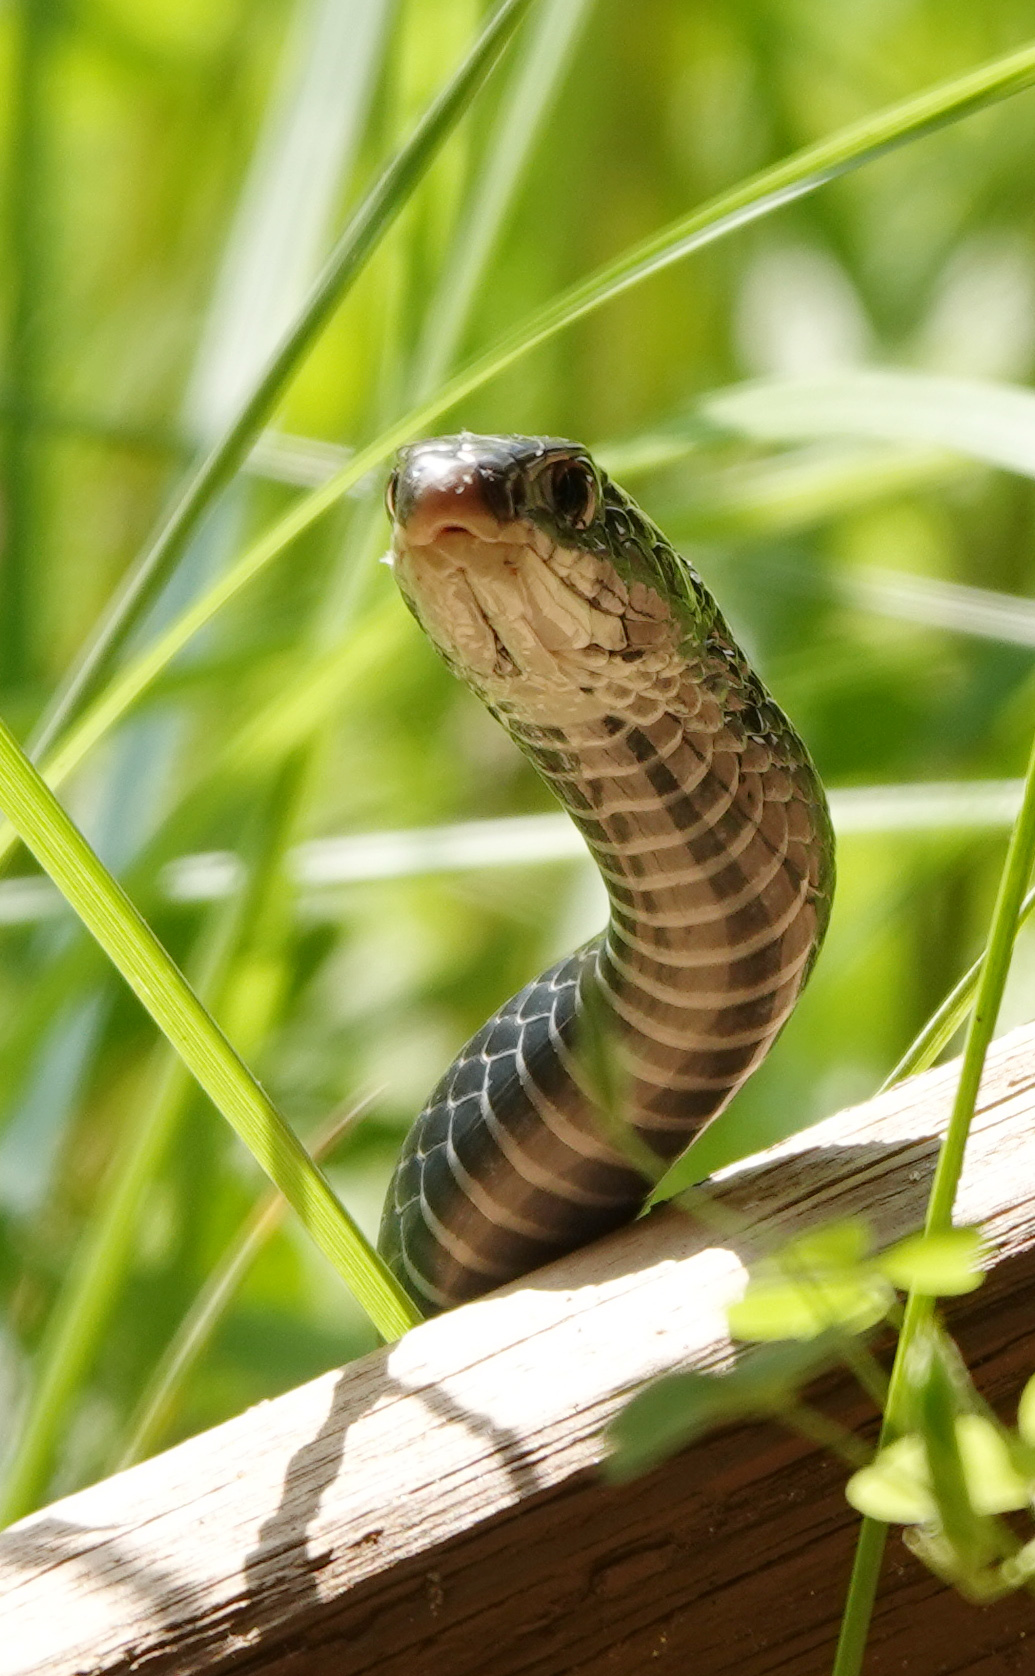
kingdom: Animalia
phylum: Chordata
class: Squamata
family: Colubridae
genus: Coluber
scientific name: Coluber constrictor
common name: Eastern racer
